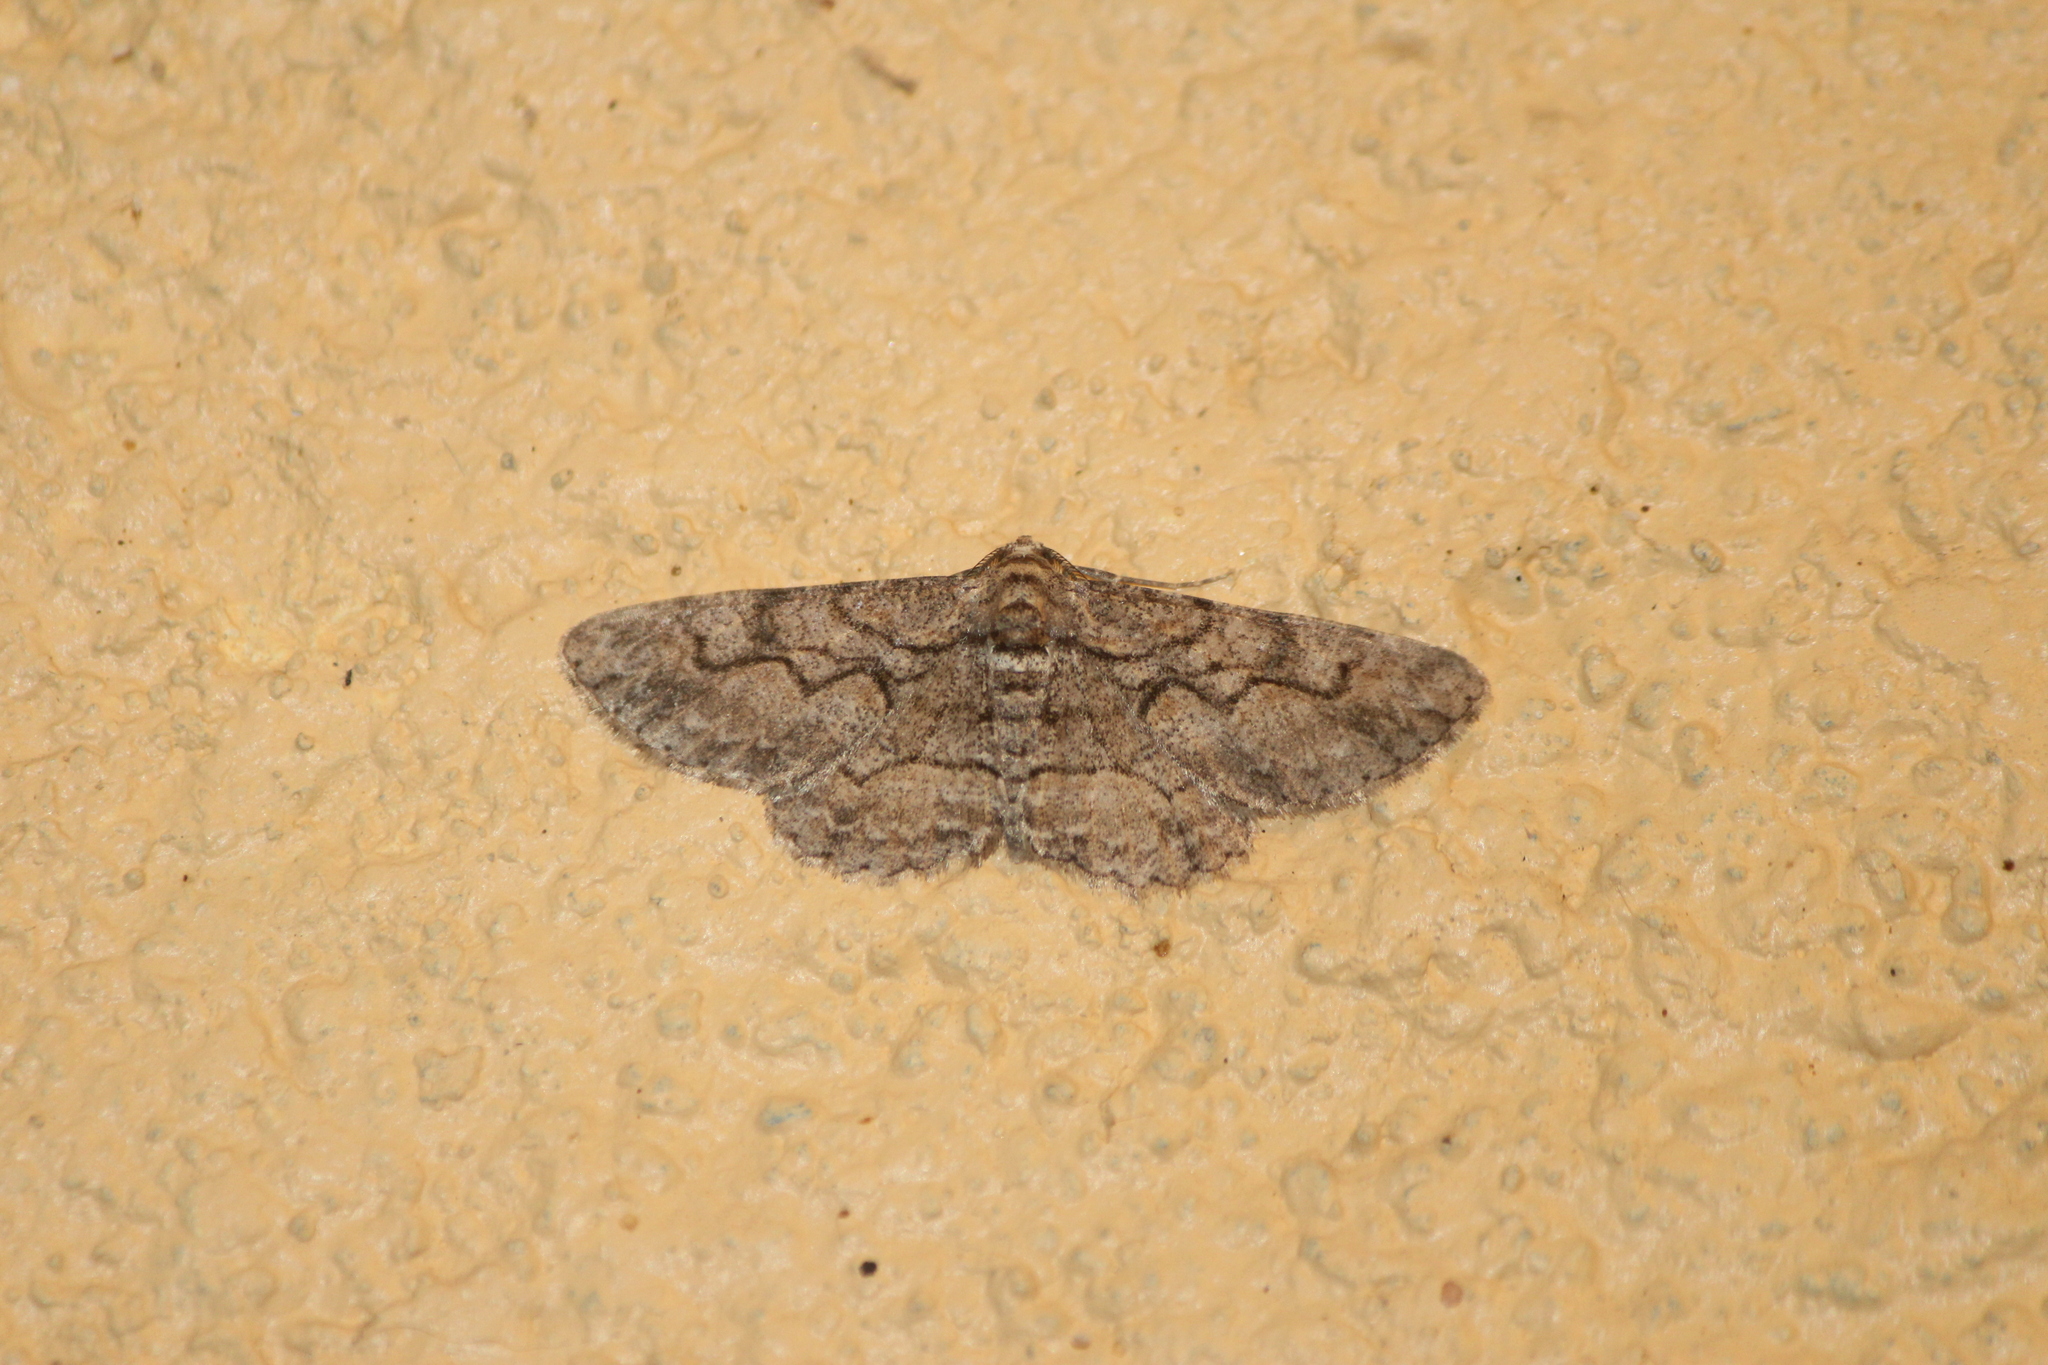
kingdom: Animalia
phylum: Arthropoda
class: Insecta
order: Lepidoptera
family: Geometridae
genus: Iridopsis
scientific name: Iridopsis defectaria
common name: Brown-shaded gray
